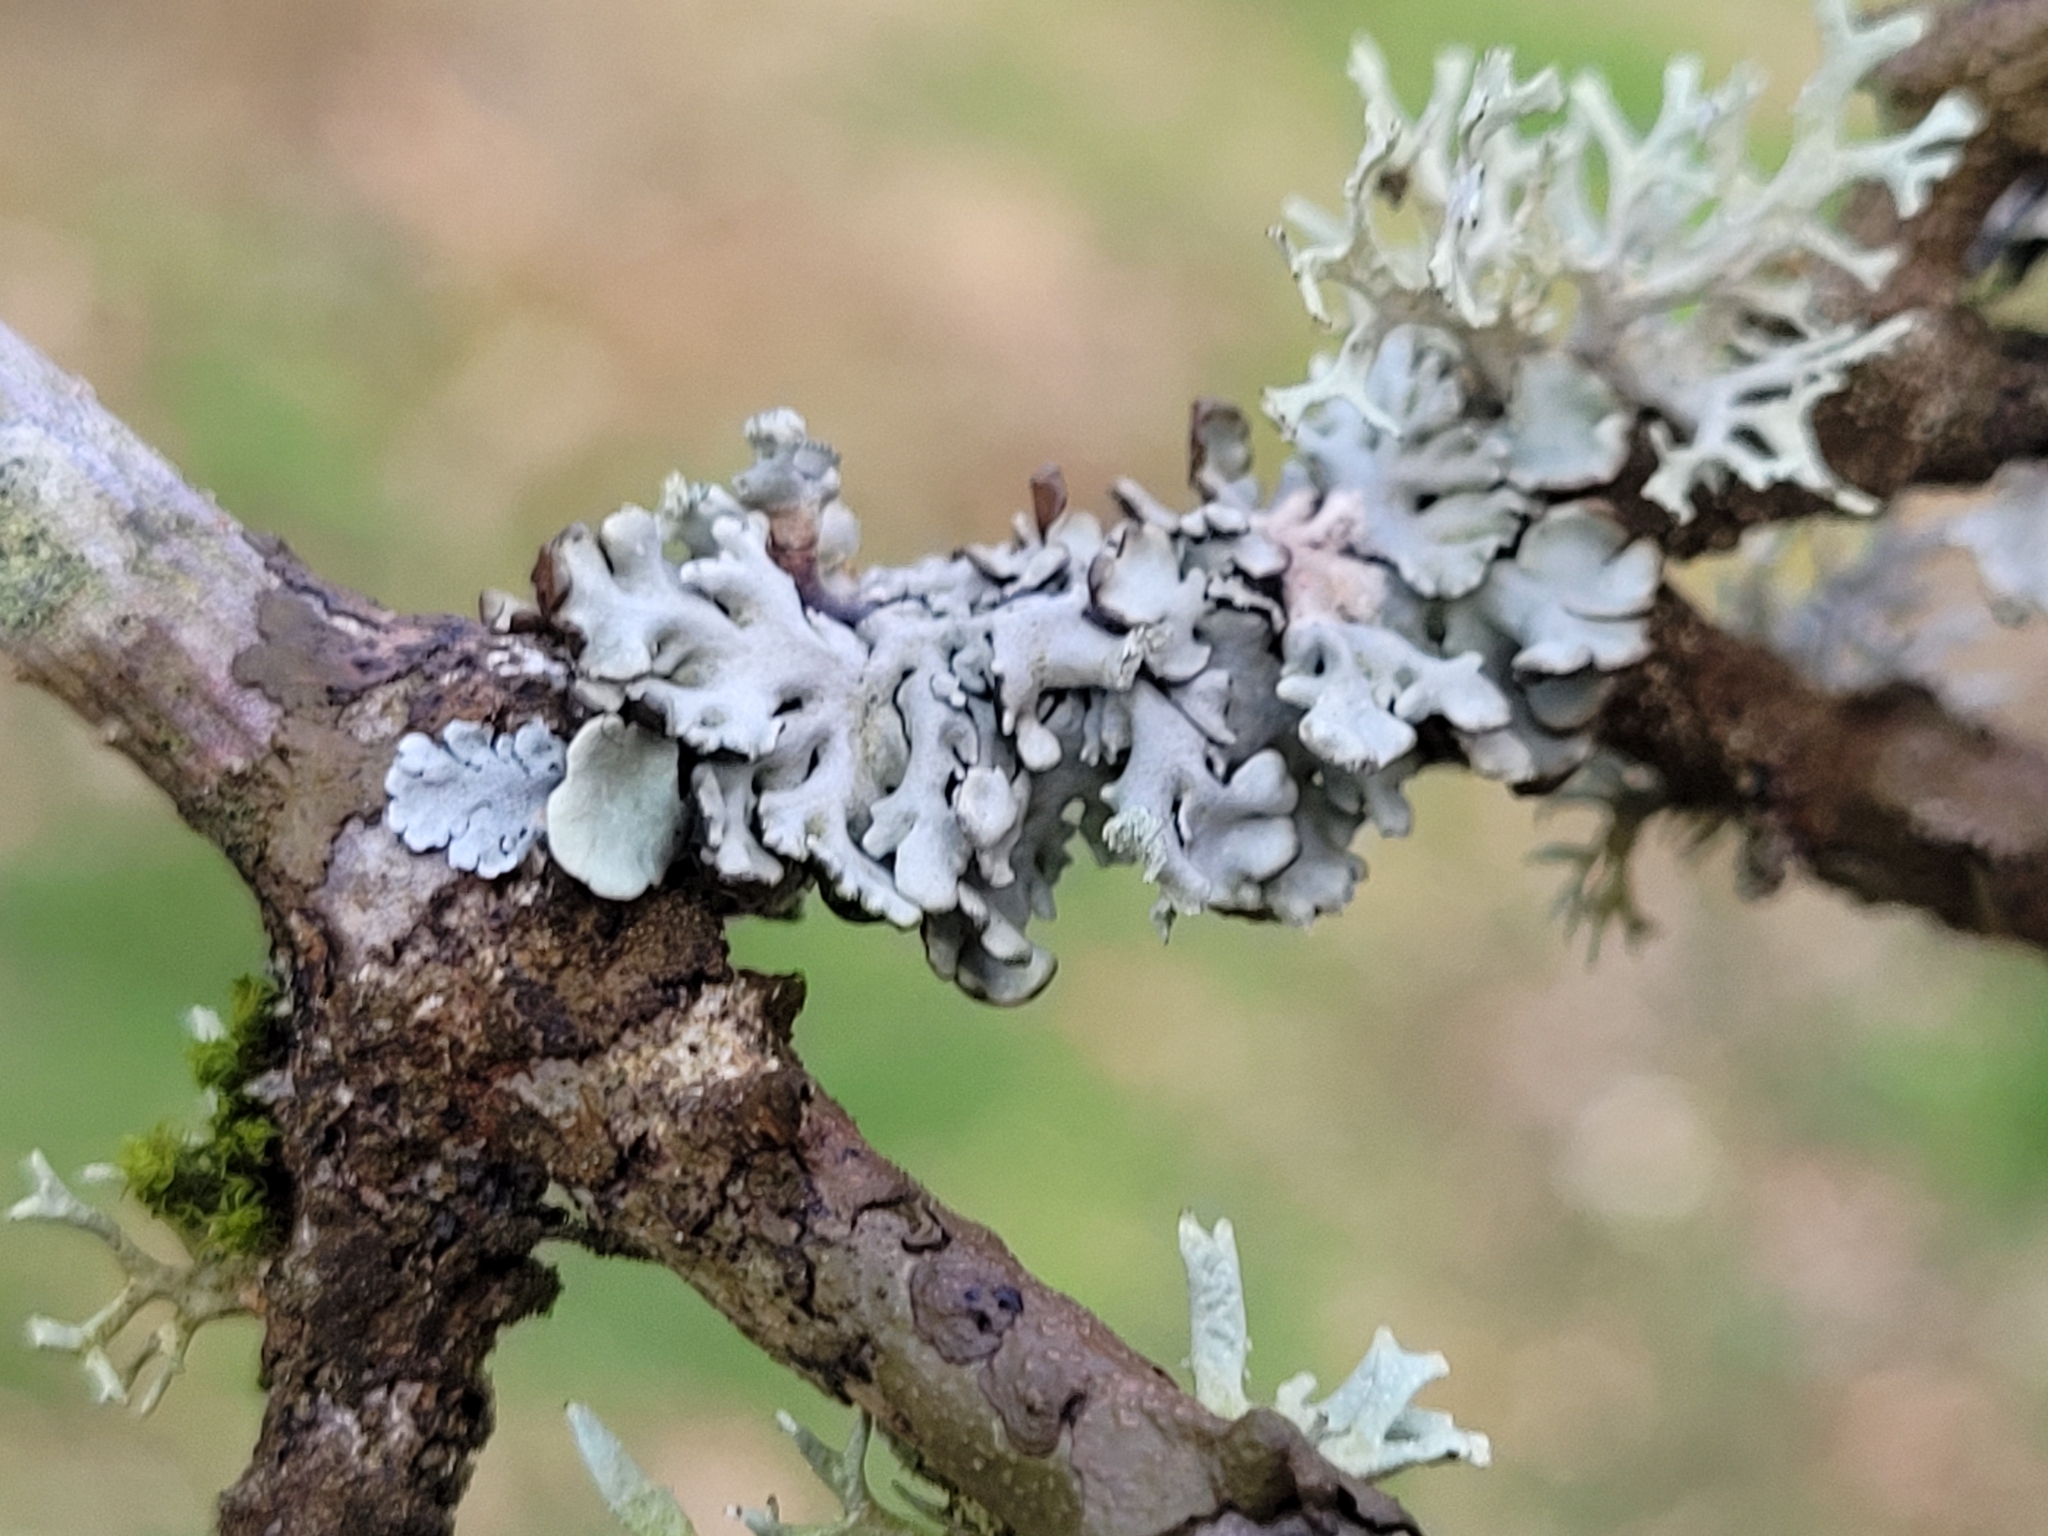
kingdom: Fungi
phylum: Ascomycota
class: Lecanoromycetes
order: Lecanorales
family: Parmeliaceae
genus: Hypogymnia
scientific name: Hypogymnia physodes
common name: Dark crottle
